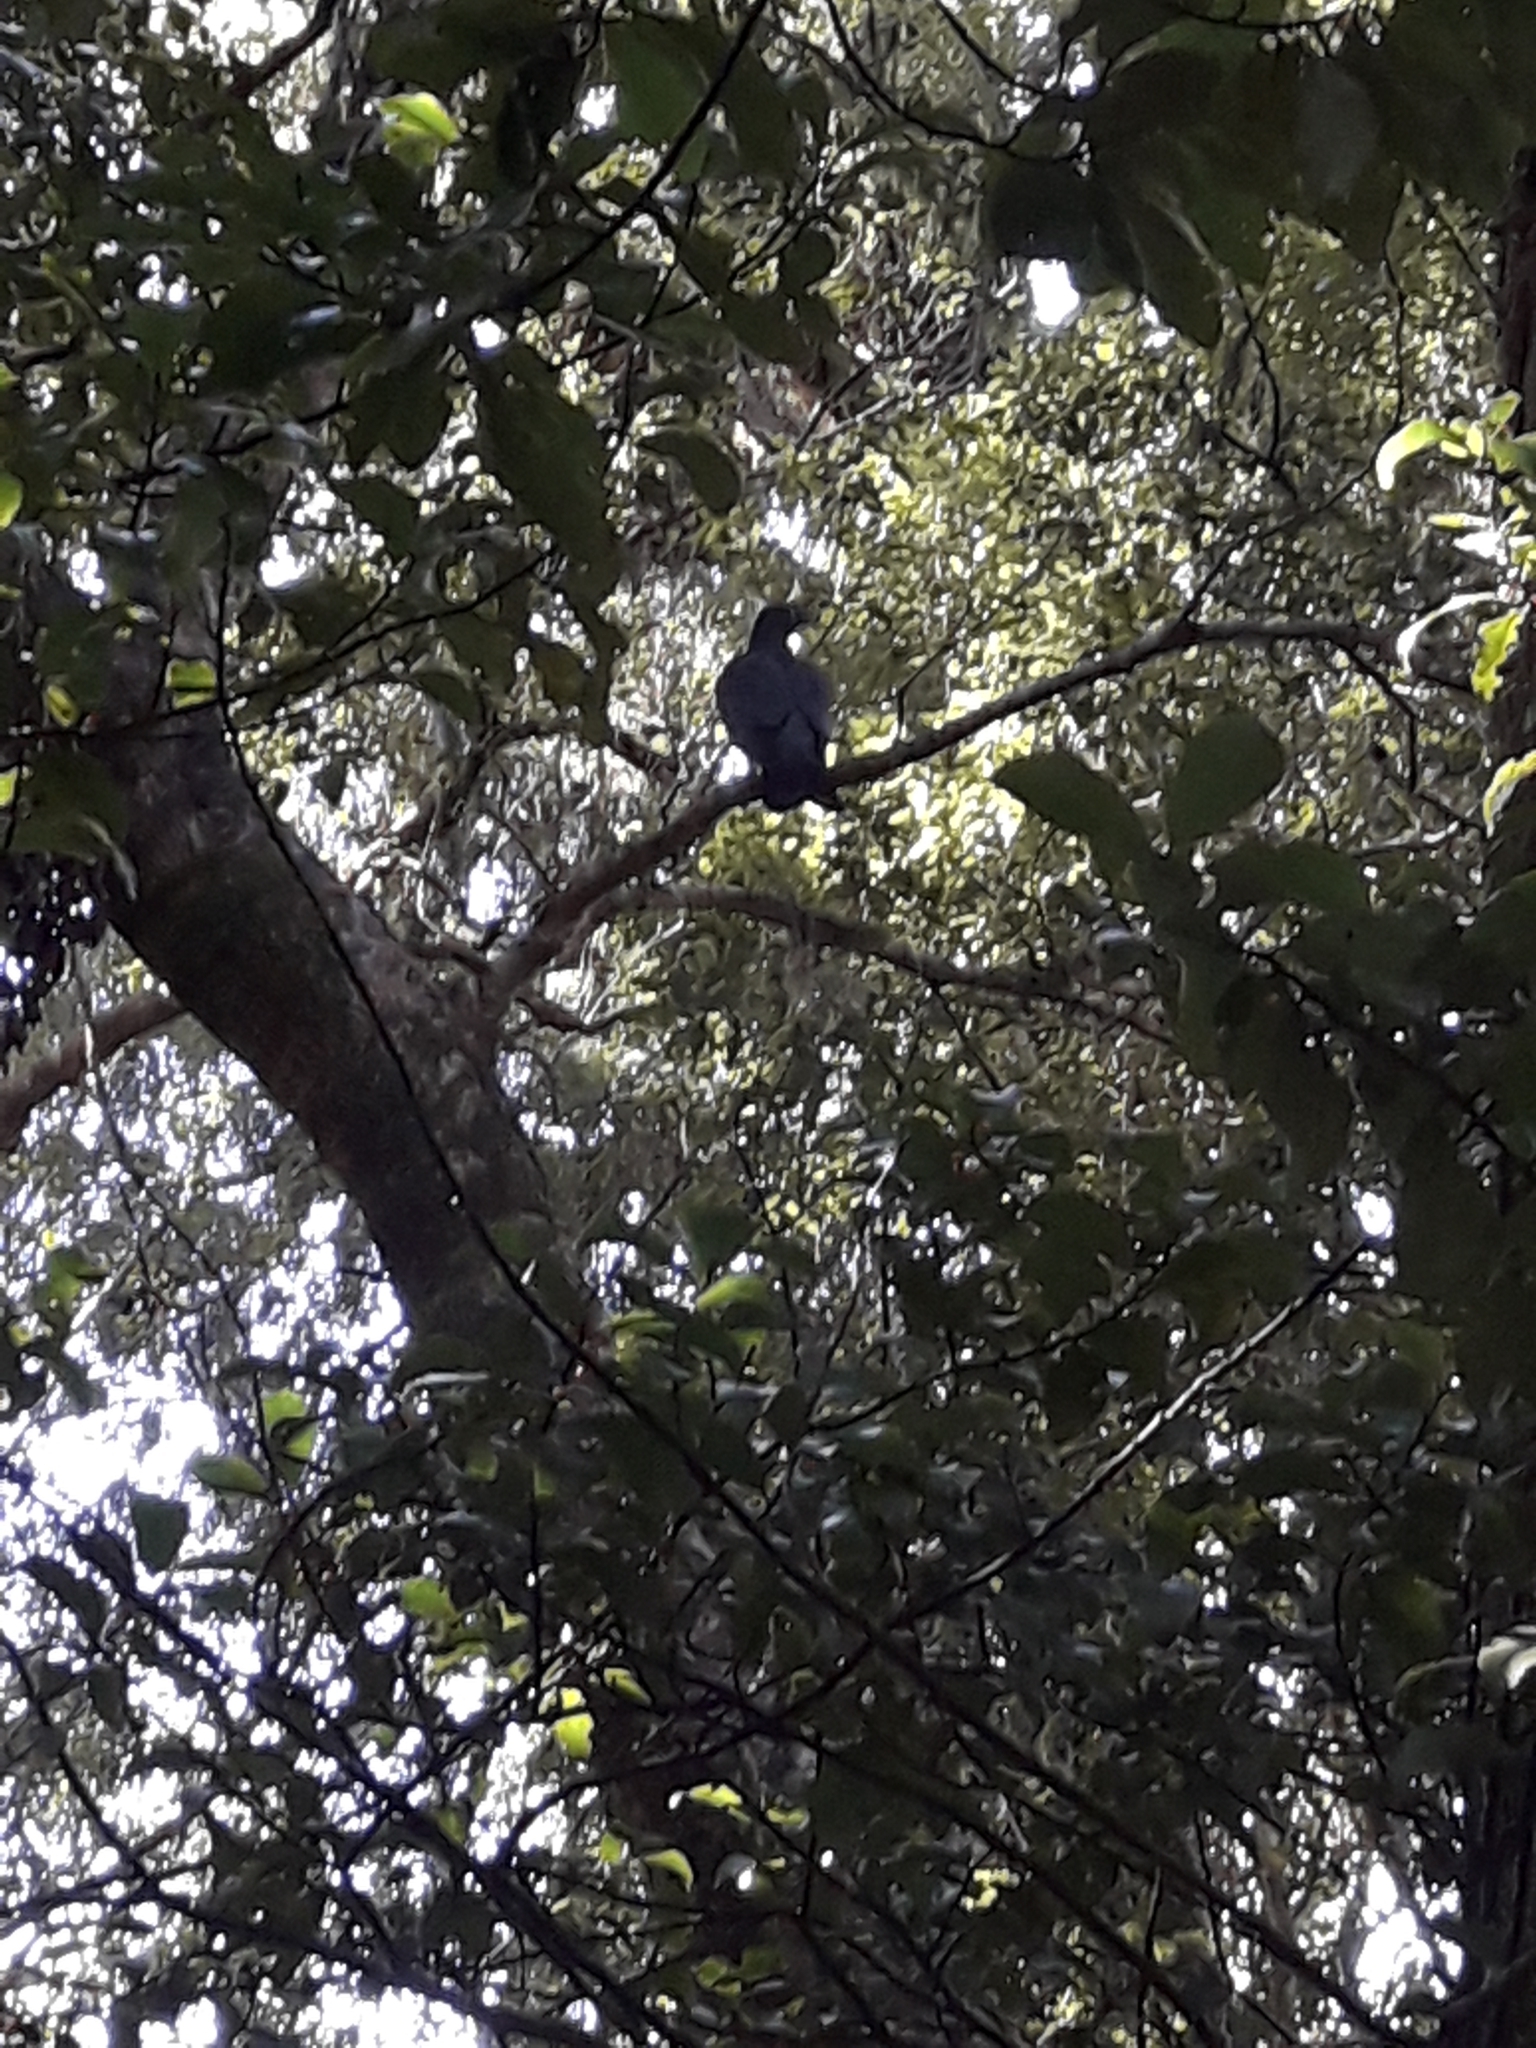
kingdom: Animalia
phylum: Chordata
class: Aves
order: Columbiformes
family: Columbidae
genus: Hemiphaga
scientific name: Hemiphaga novaeseelandiae
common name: New zealand pigeon
